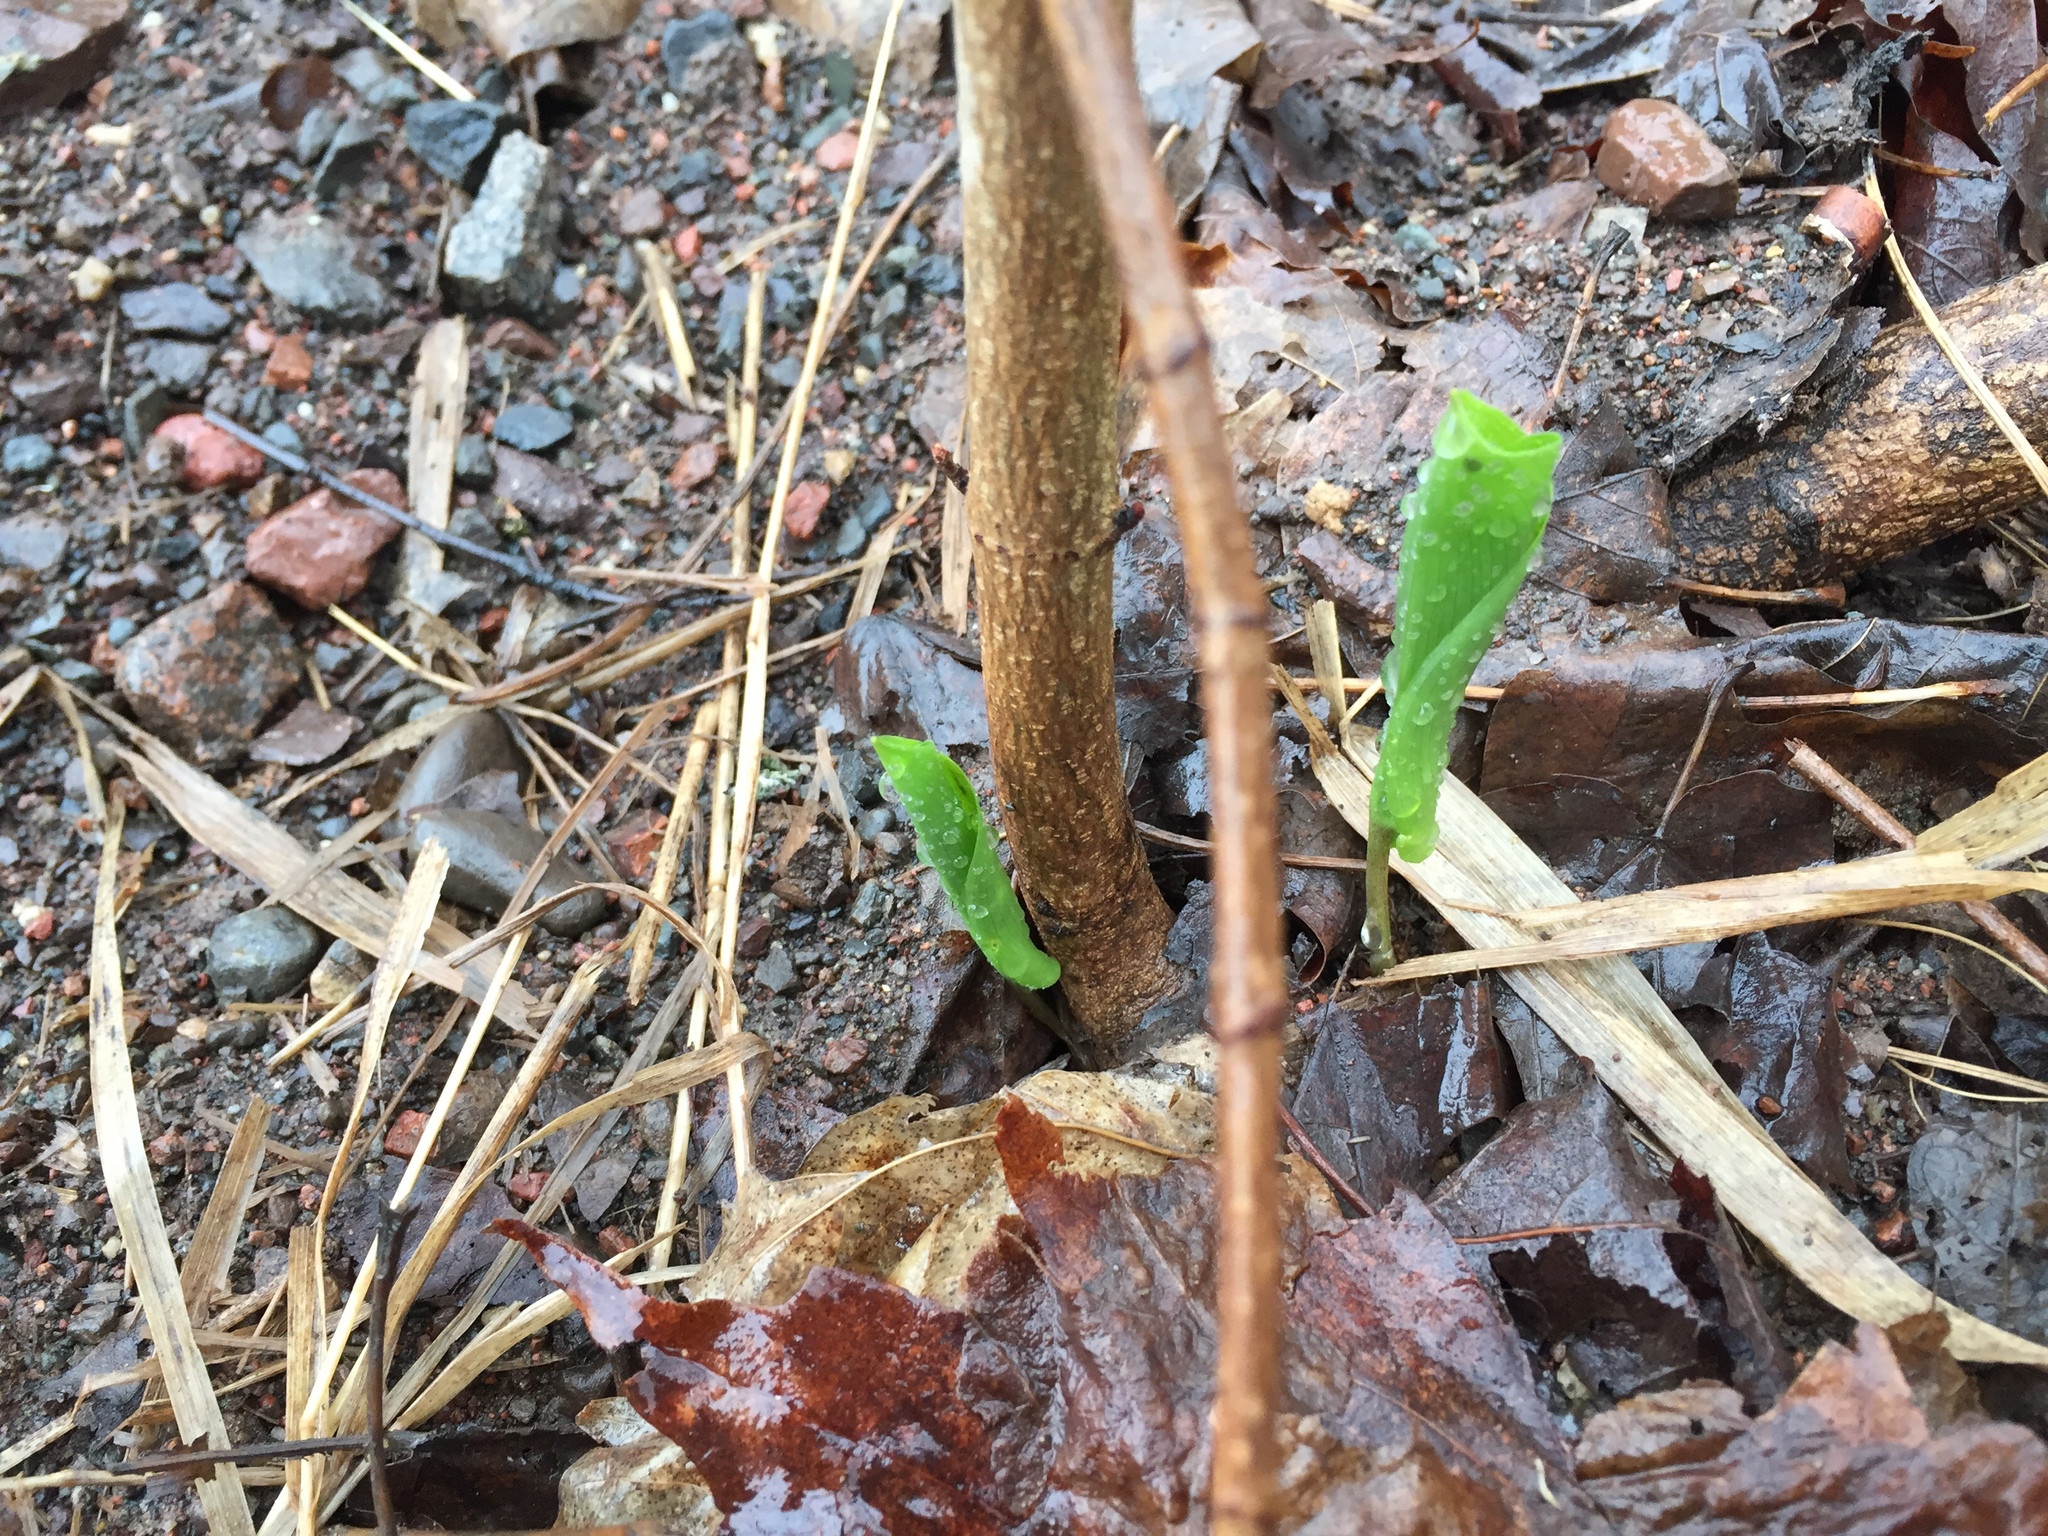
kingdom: Plantae
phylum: Tracheophyta
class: Liliopsida
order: Asparagales
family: Asparagaceae
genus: Maianthemum
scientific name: Maianthemum canadense
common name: False lily-of-the-valley
